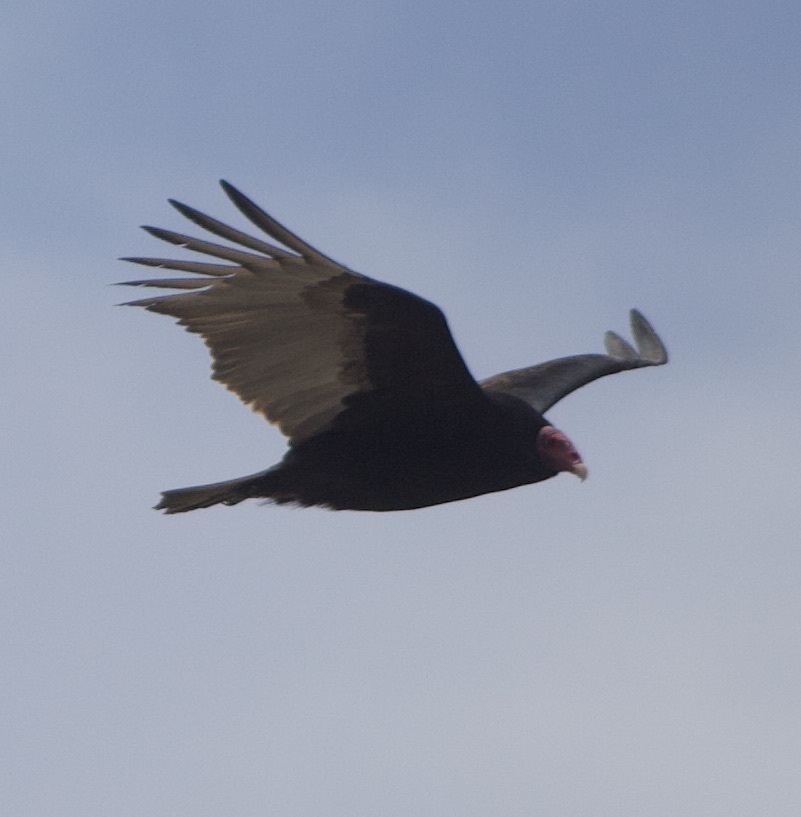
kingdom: Animalia
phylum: Chordata
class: Aves
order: Accipitriformes
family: Cathartidae
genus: Cathartes
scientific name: Cathartes aura
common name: Turkey vulture
